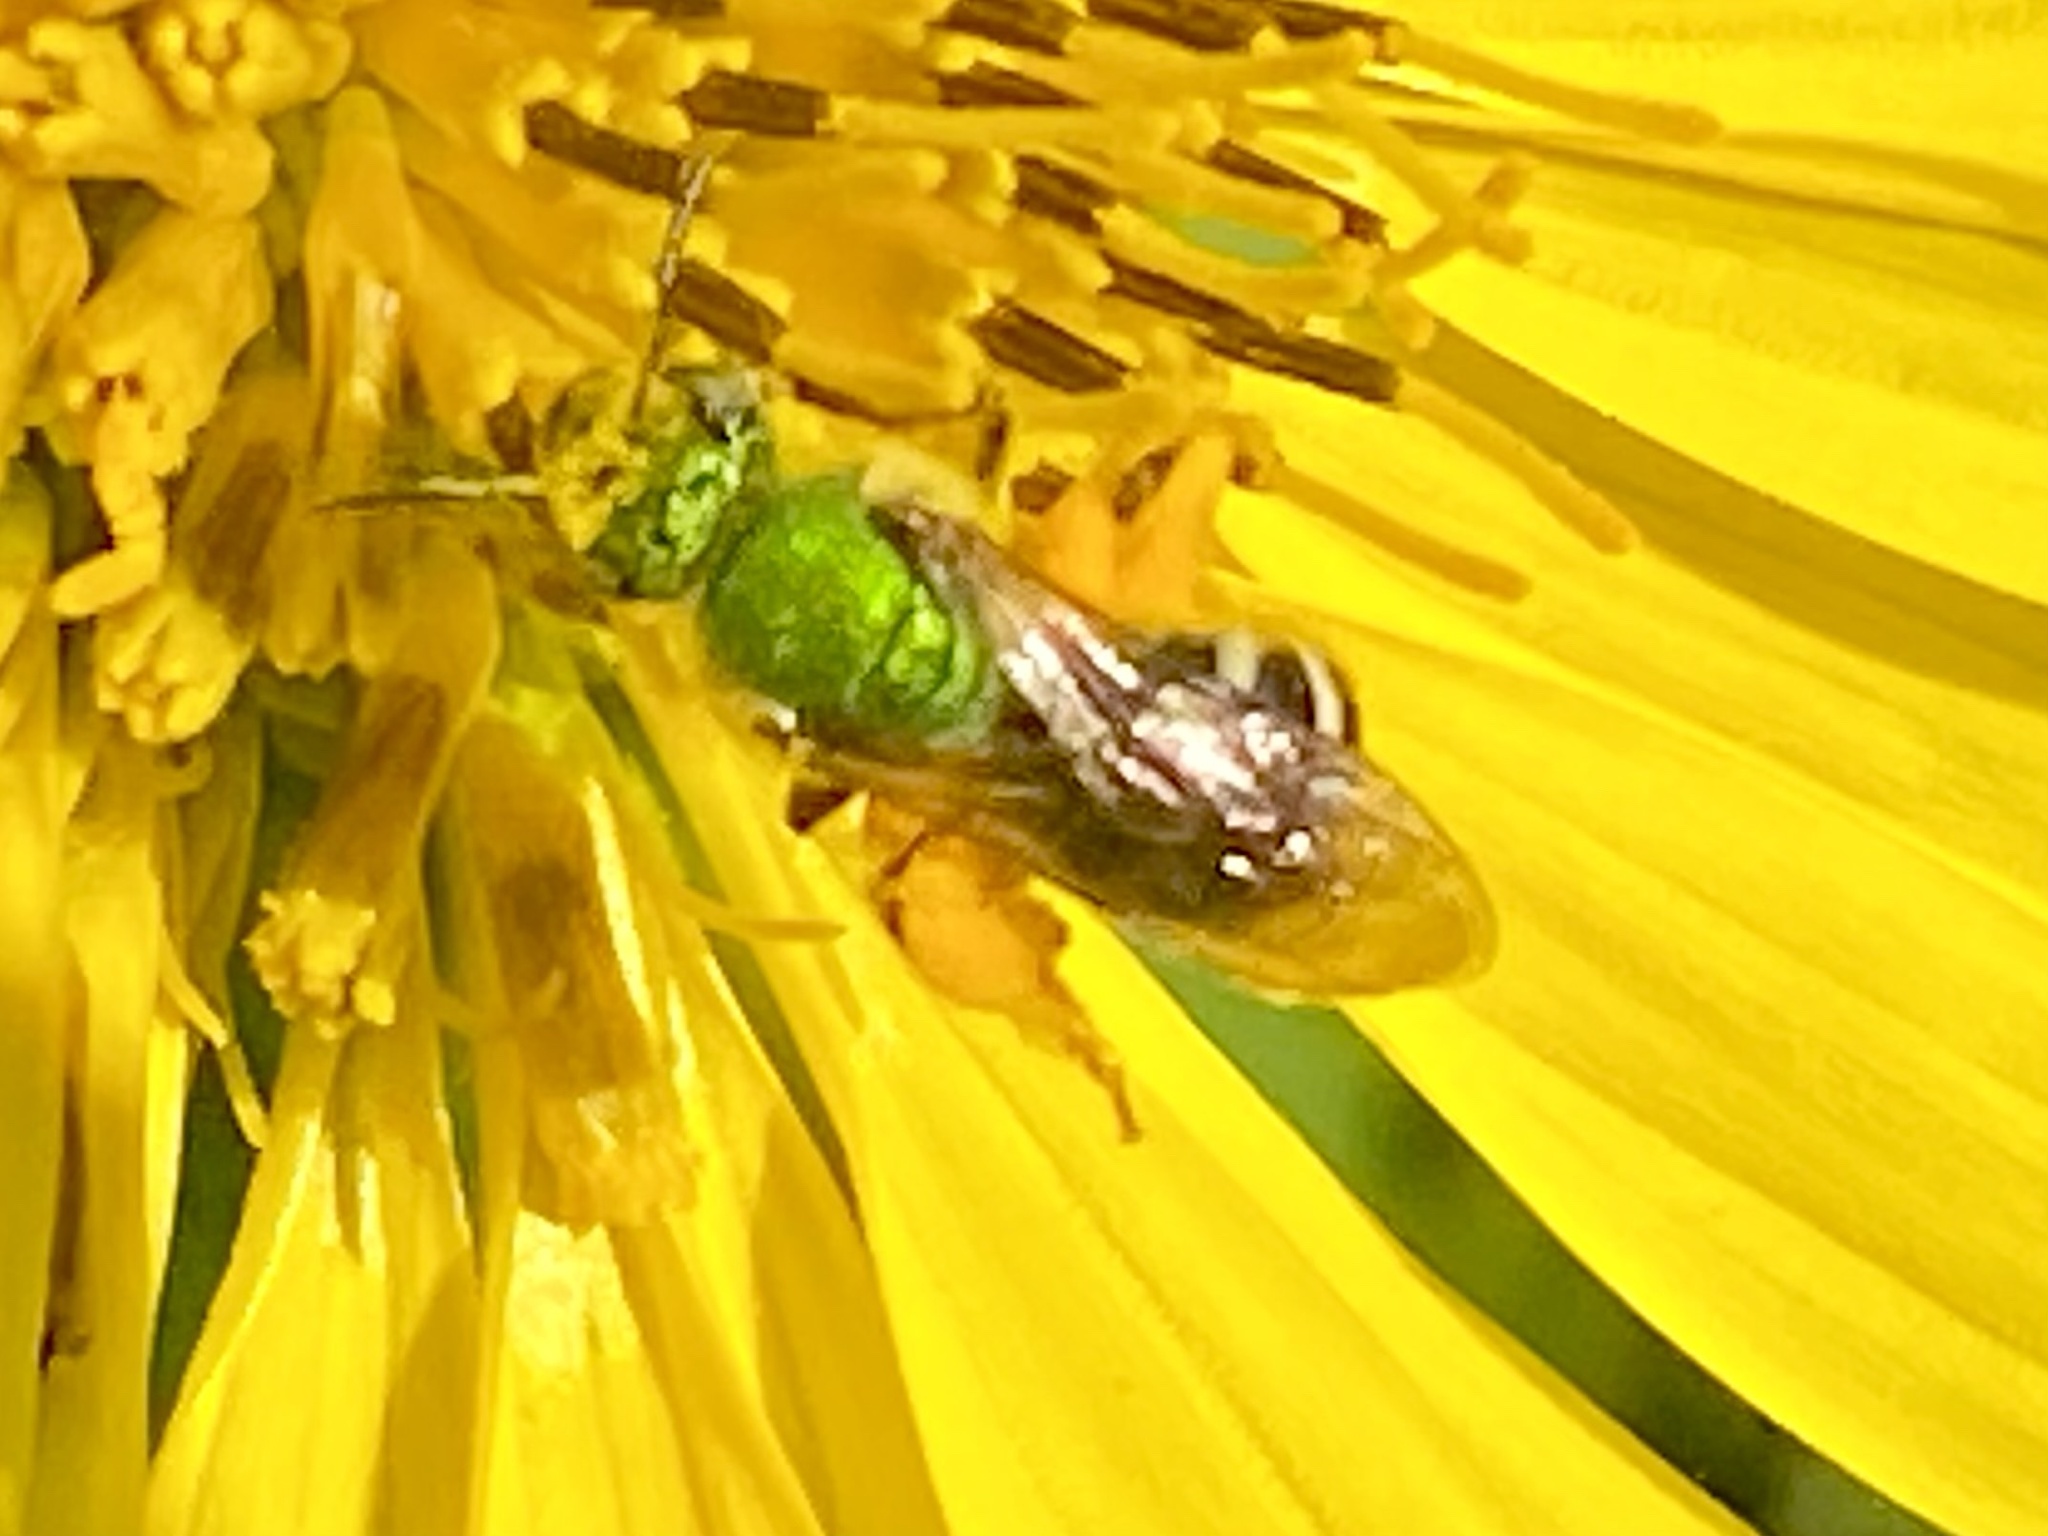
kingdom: Animalia
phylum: Arthropoda
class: Insecta
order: Hymenoptera
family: Halictidae
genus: Agapostemon
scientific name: Agapostemon virescens
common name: Bicolored striped sweat bee
